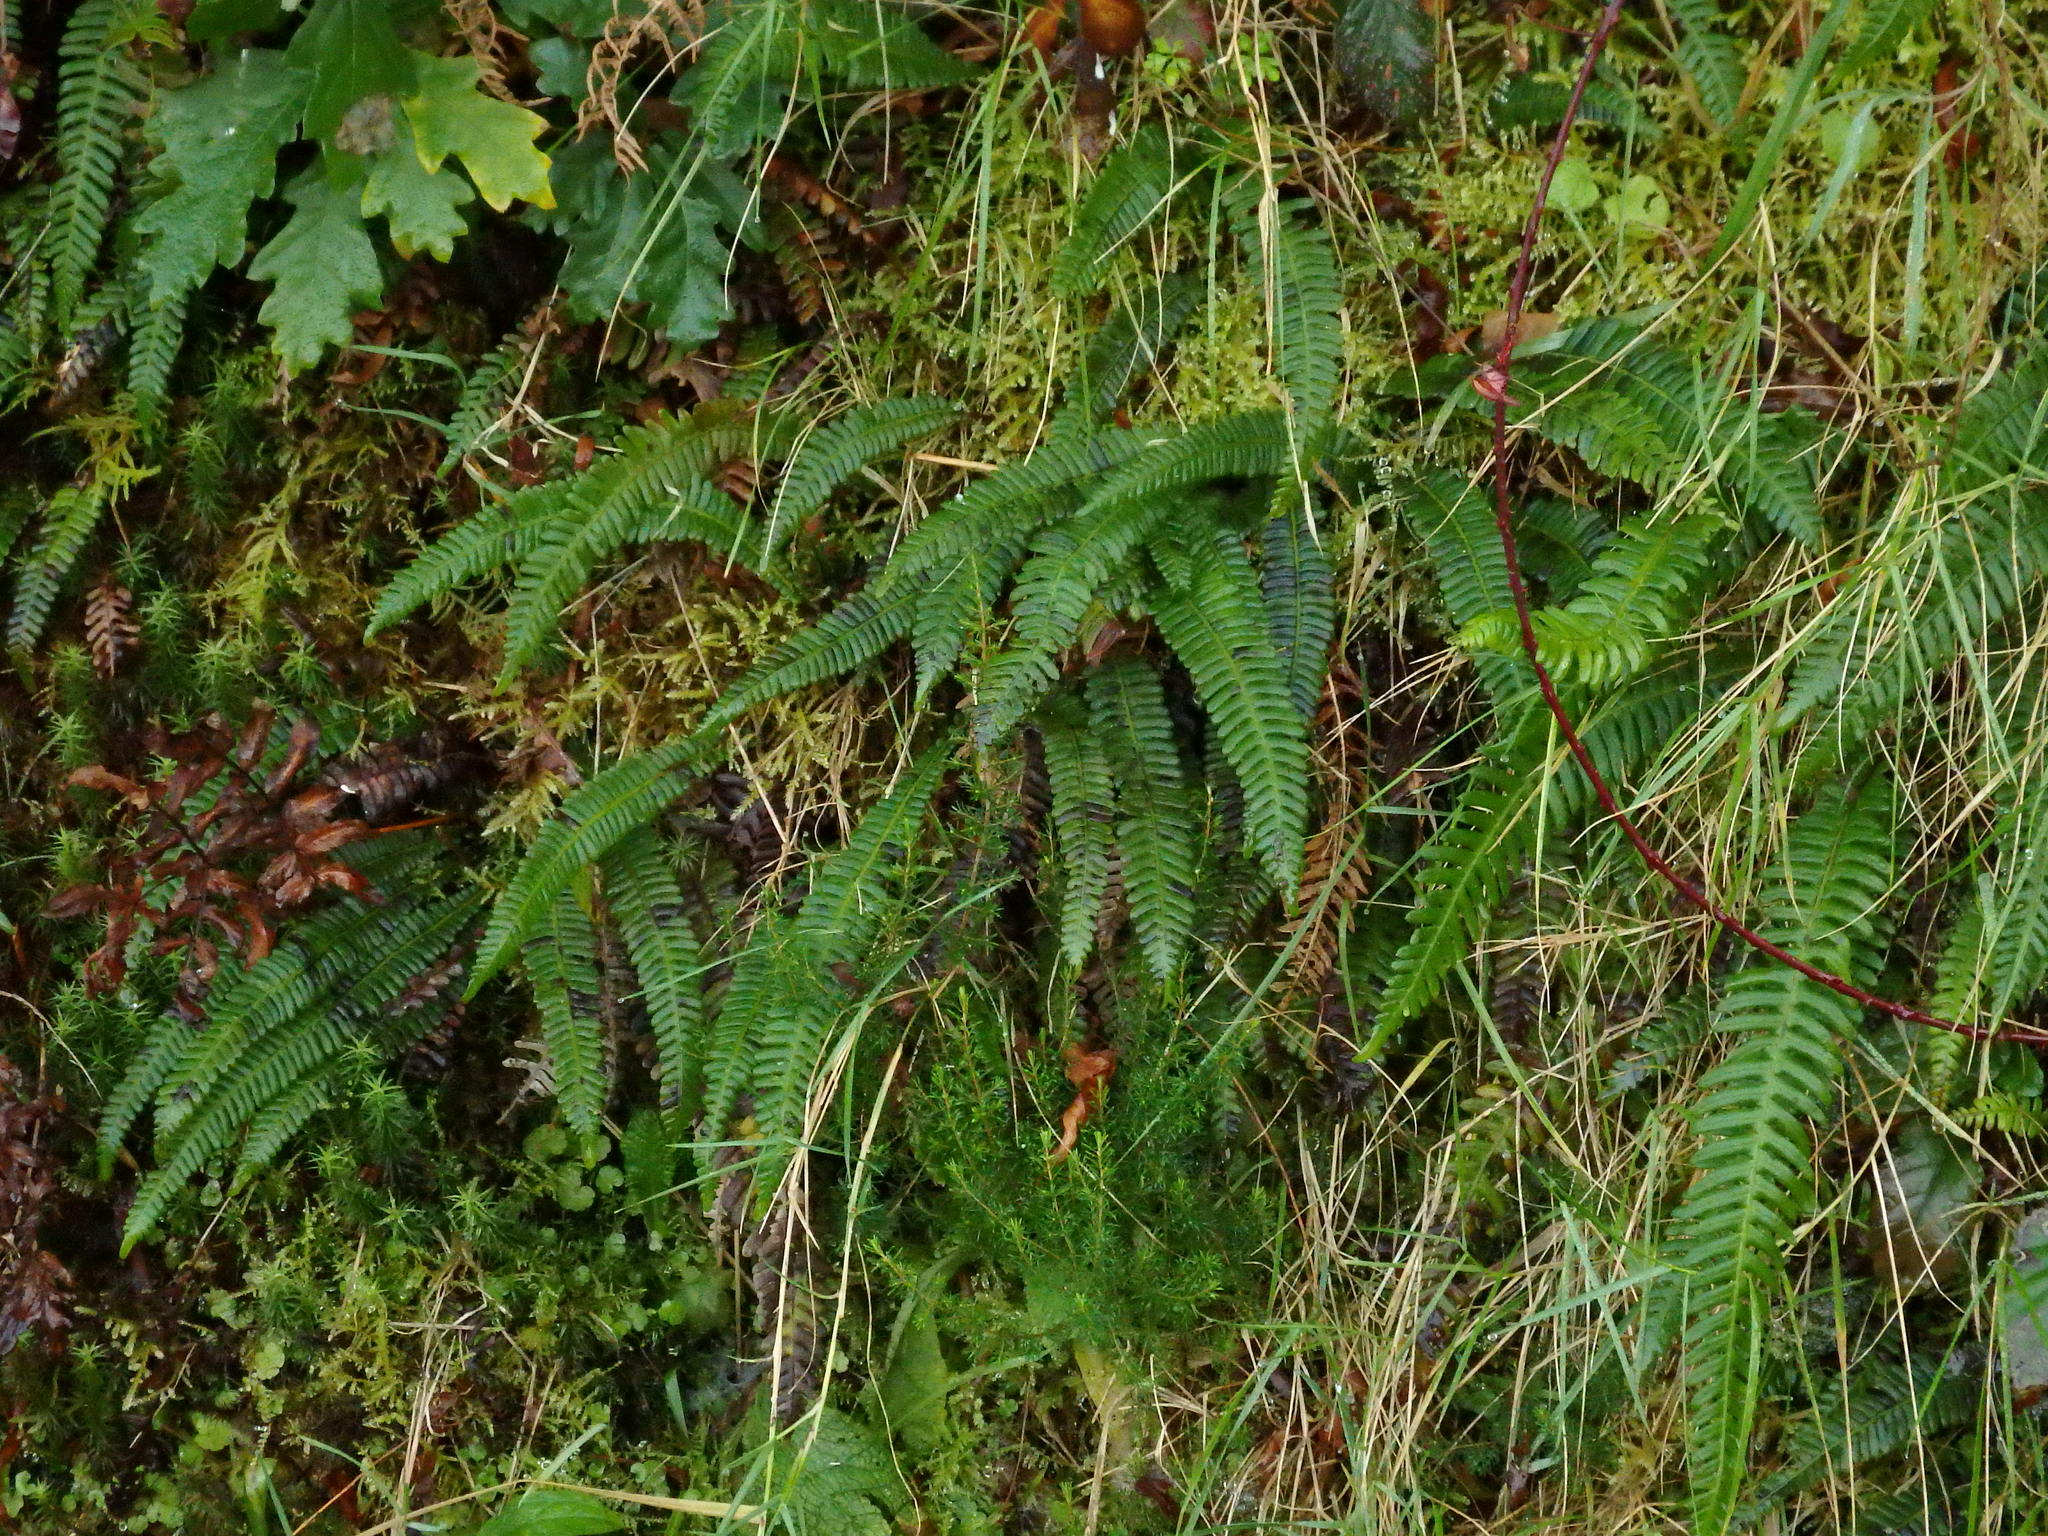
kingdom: Plantae
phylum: Tracheophyta
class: Polypodiopsida
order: Polypodiales
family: Blechnaceae
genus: Struthiopteris
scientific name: Struthiopteris spicant
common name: Deer fern
